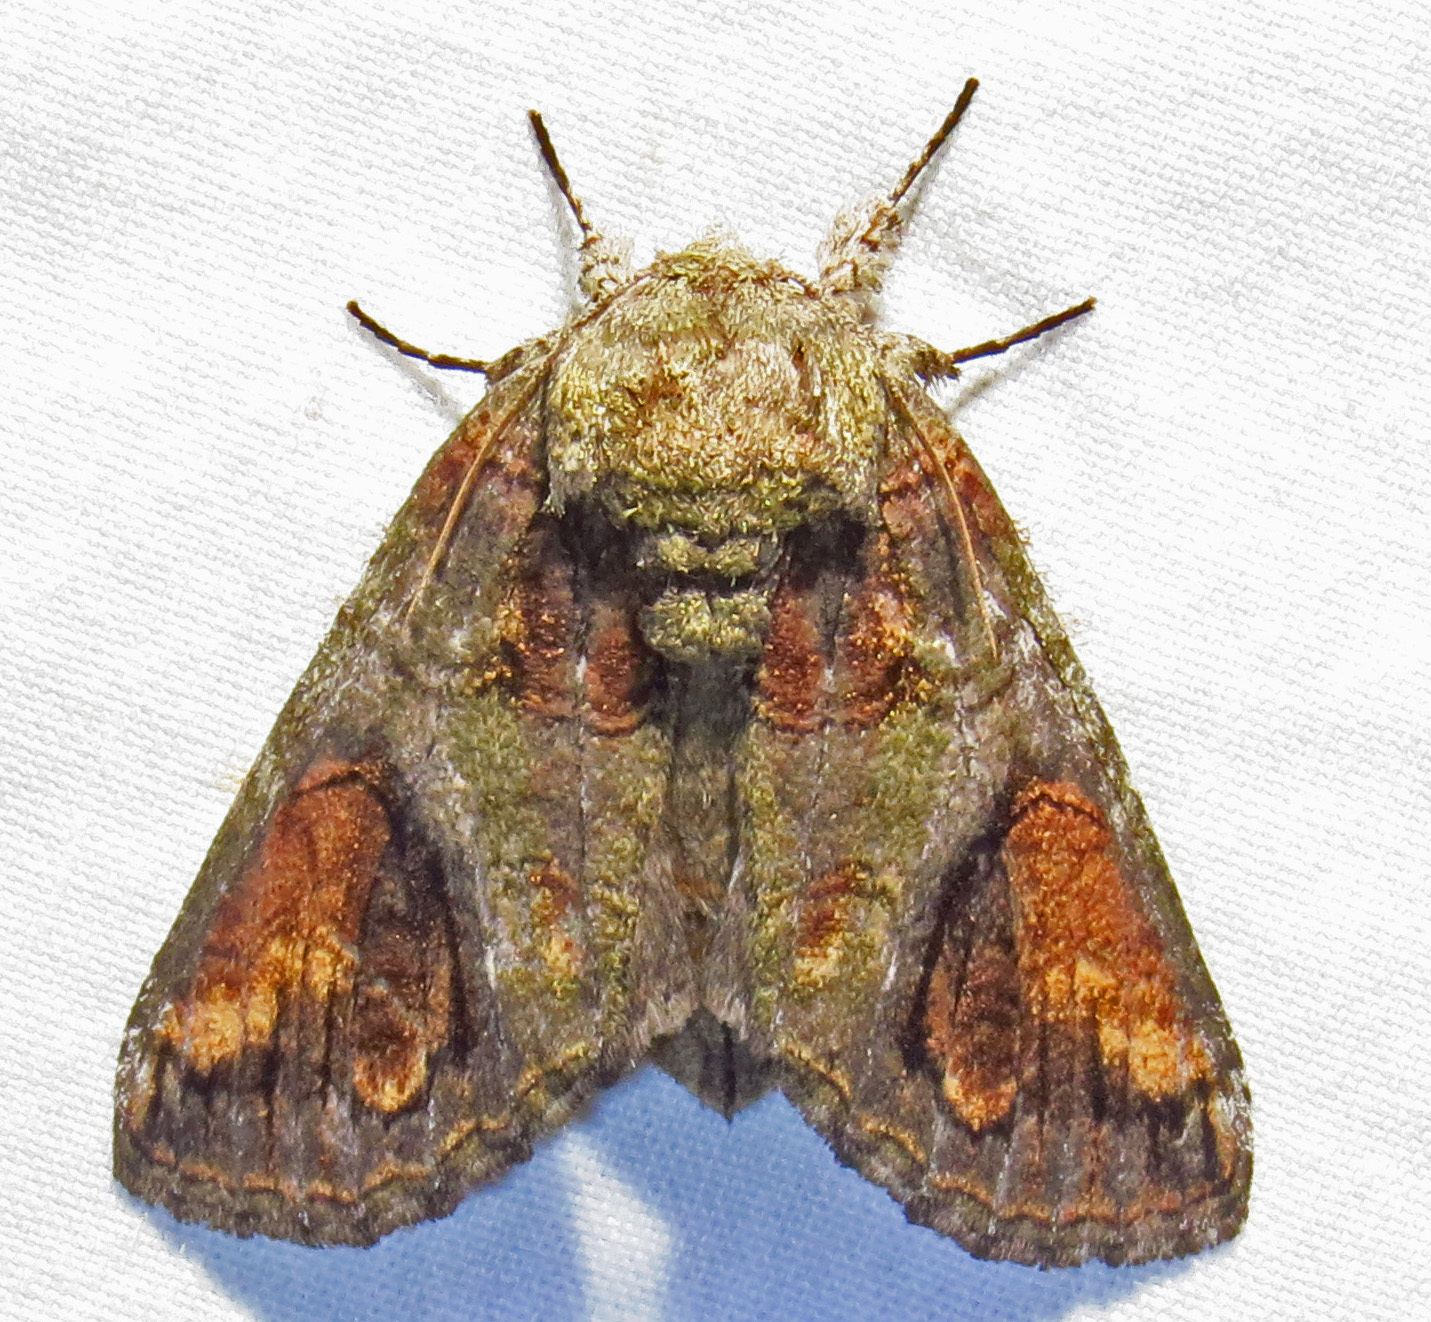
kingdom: Animalia
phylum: Arthropoda
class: Insecta
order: Lepidoptera
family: Notodontidae
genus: Heterocampa
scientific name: Heterocampa obliqua
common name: Oblique heterocampa
